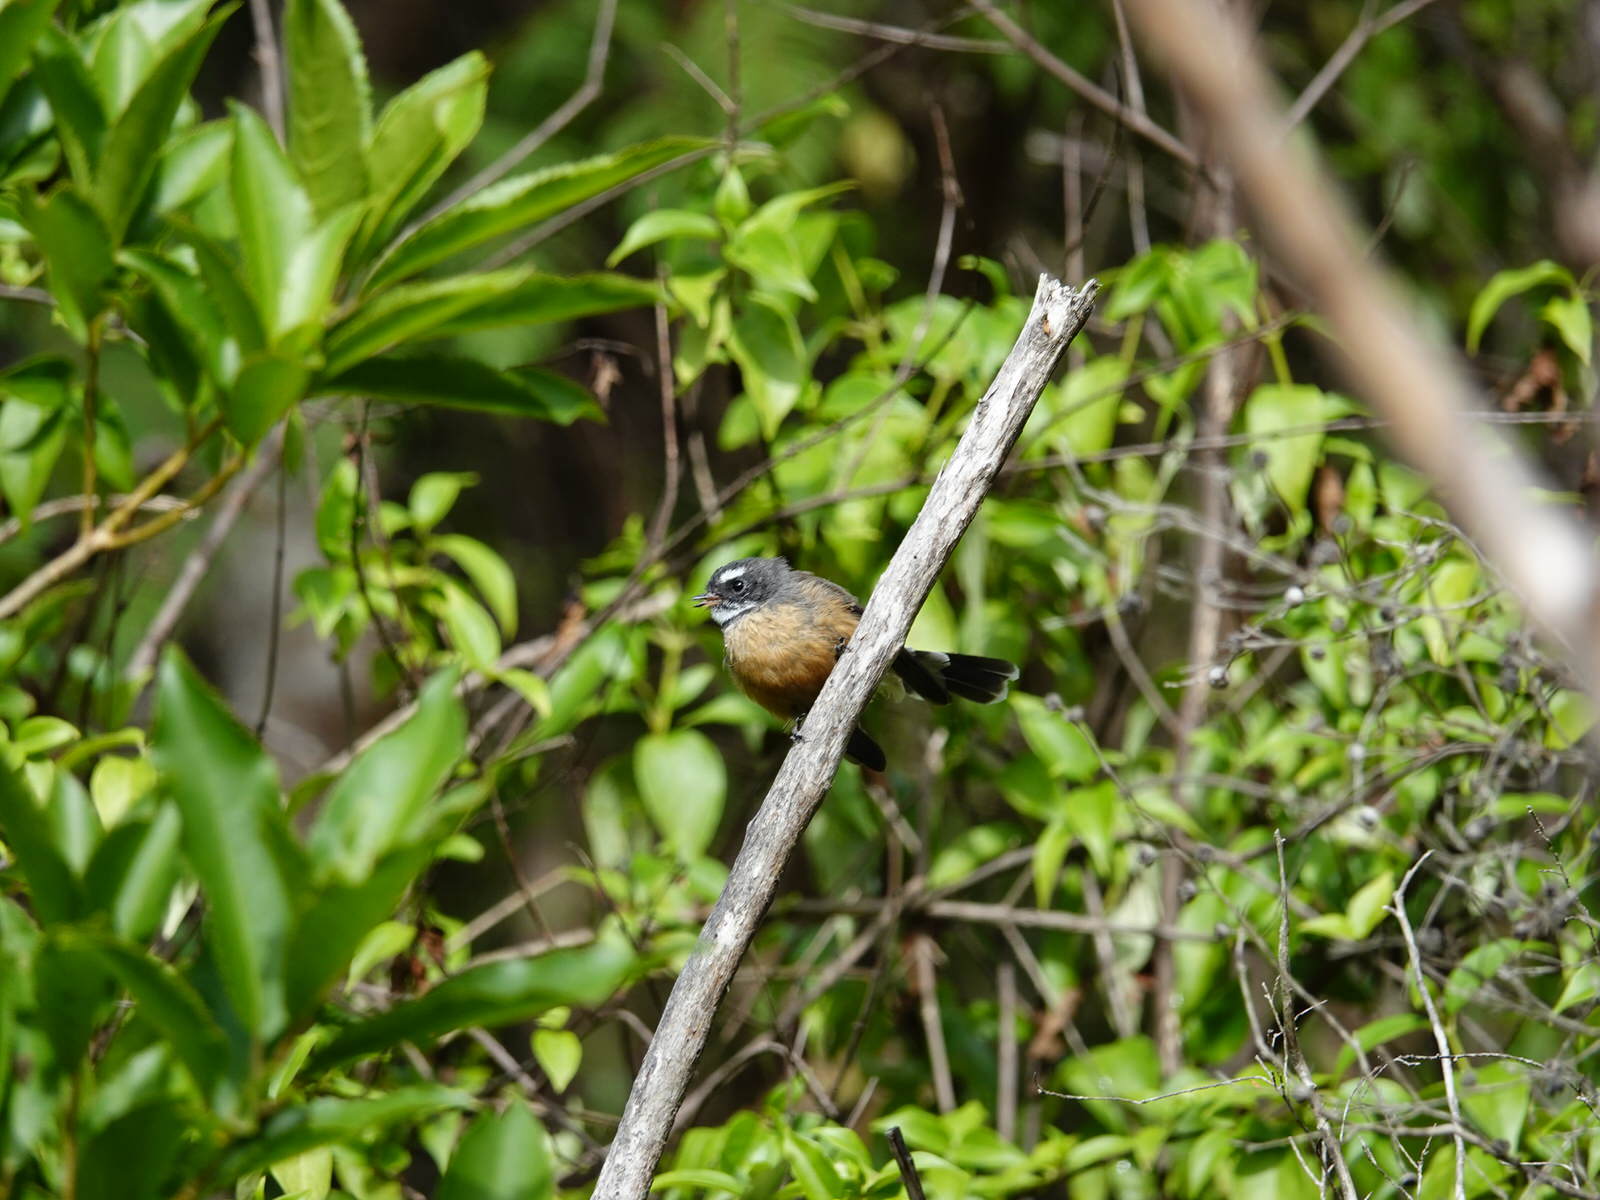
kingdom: Animalia
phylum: Chordata
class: Aves
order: Passeriformes
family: Rhipiduridae
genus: Rhipidura
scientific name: Rhipidura fuliginosa
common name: New zealand fantail
